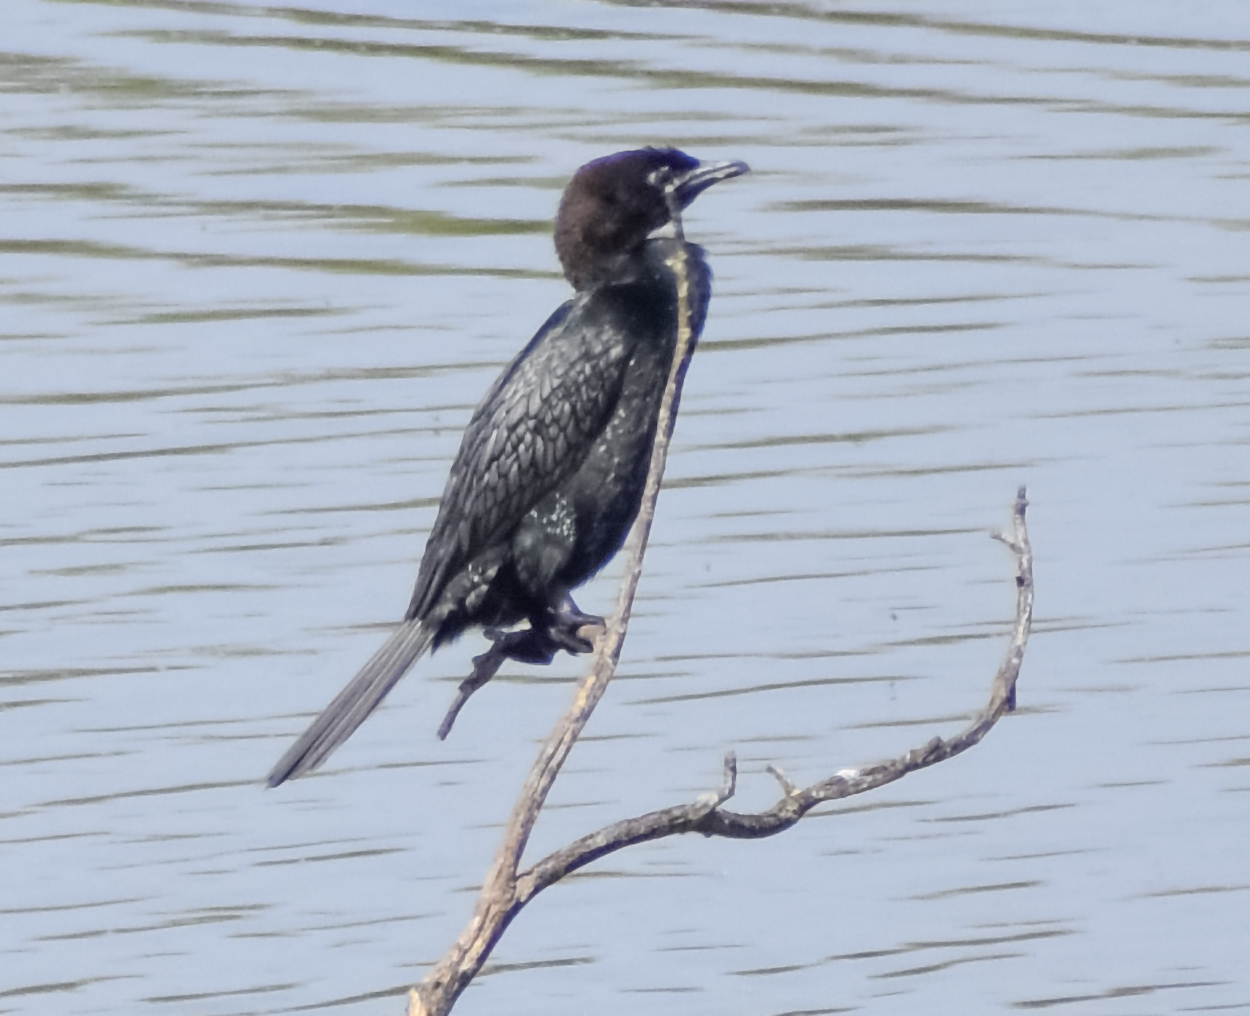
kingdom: Animalia
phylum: Chordata
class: Aves
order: Suliformes
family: Phalacrocoracidae
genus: Microcarbo
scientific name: Microcarbo pygmaeus
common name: Pygmy cormorant
